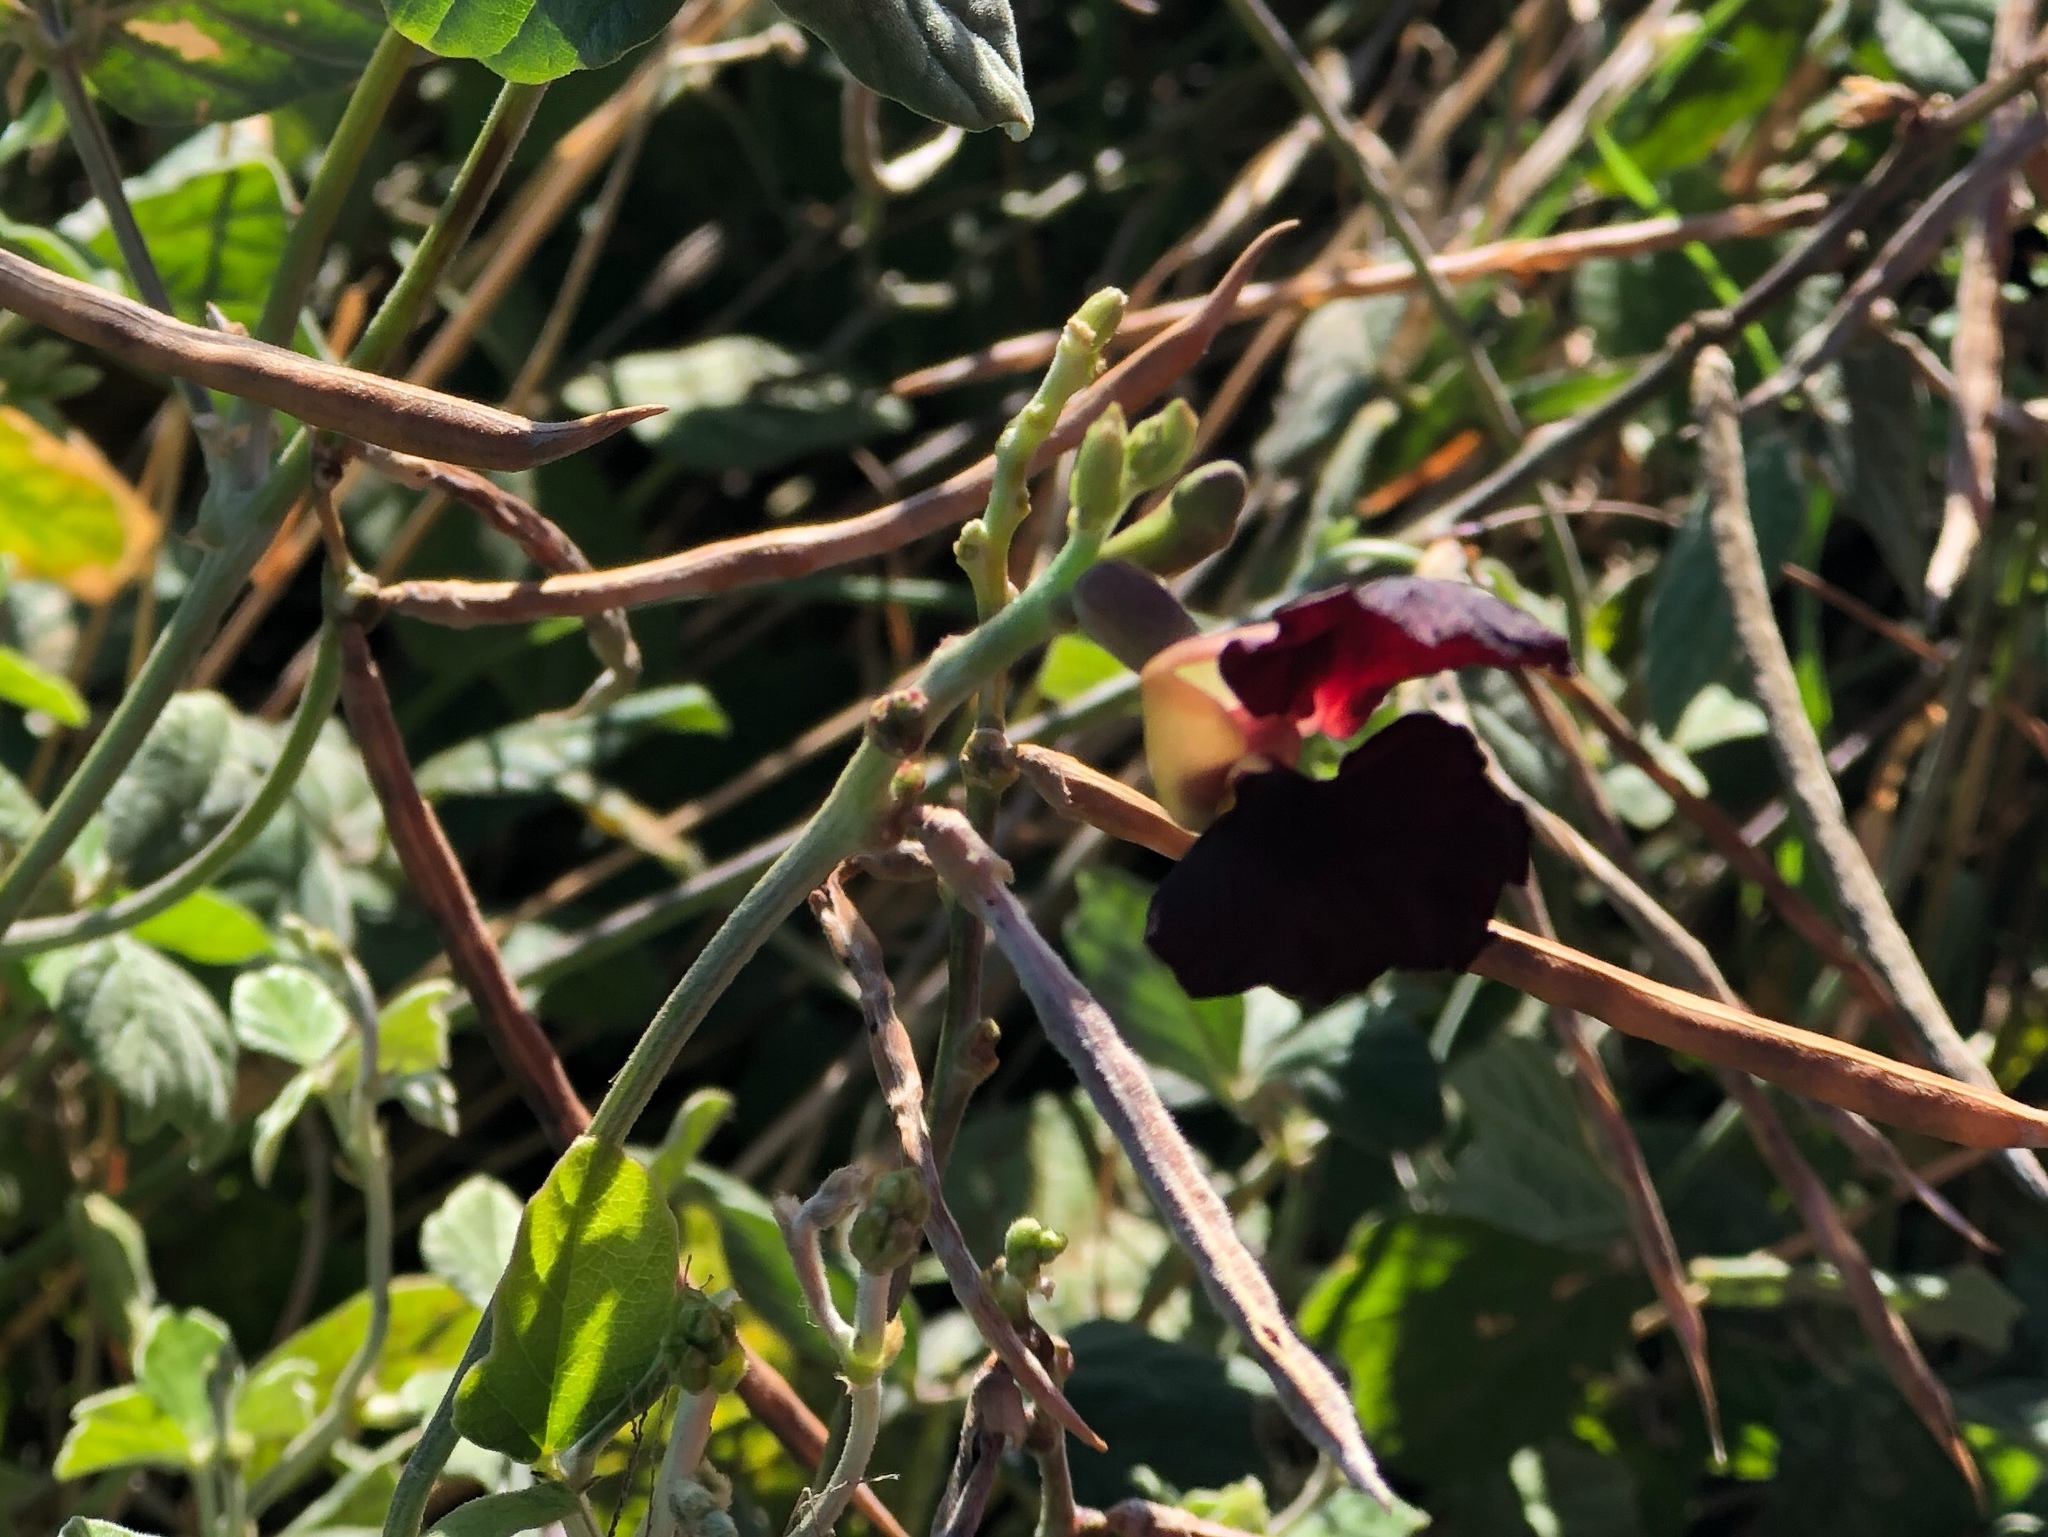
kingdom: Plantae
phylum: Tracheophyta
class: Magnoliopsida
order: Fabales
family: Fabaceae
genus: Macroptilium
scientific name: Macroptilium atropurpureum
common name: Purple bushbean
